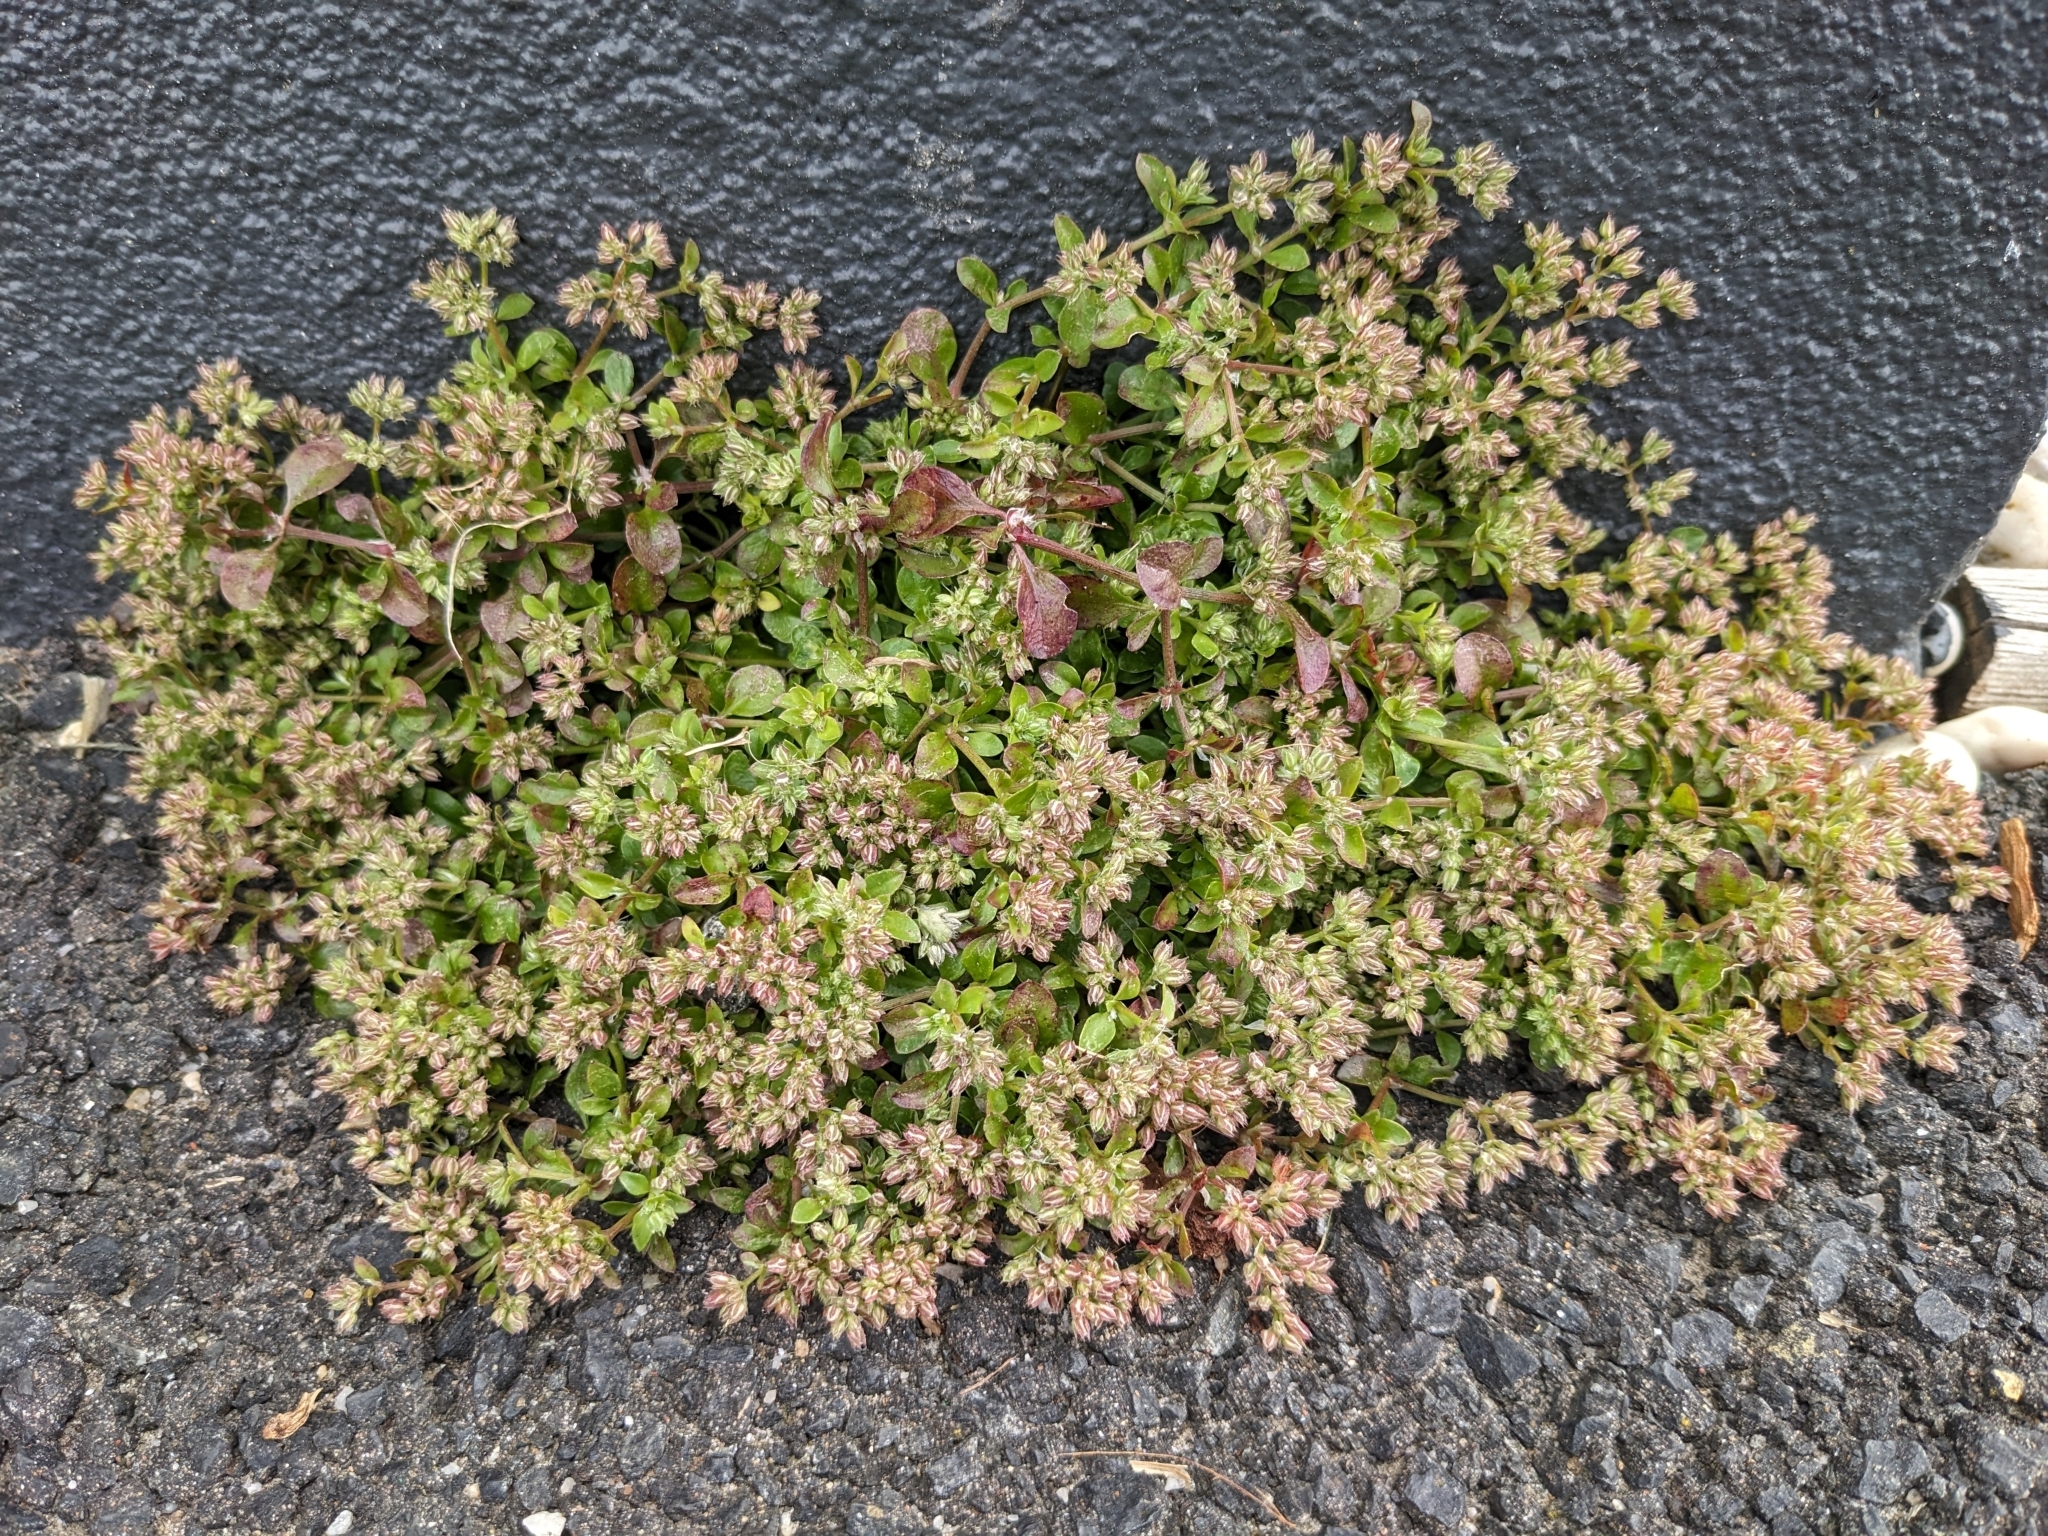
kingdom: Plantae
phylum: Tracheophyta
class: Magnoliopsida
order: Caryophyllales
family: Caryophyllaceae
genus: Polycarpon
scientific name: Polycarpon tetraphyllum
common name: Four-leaved all-seed
